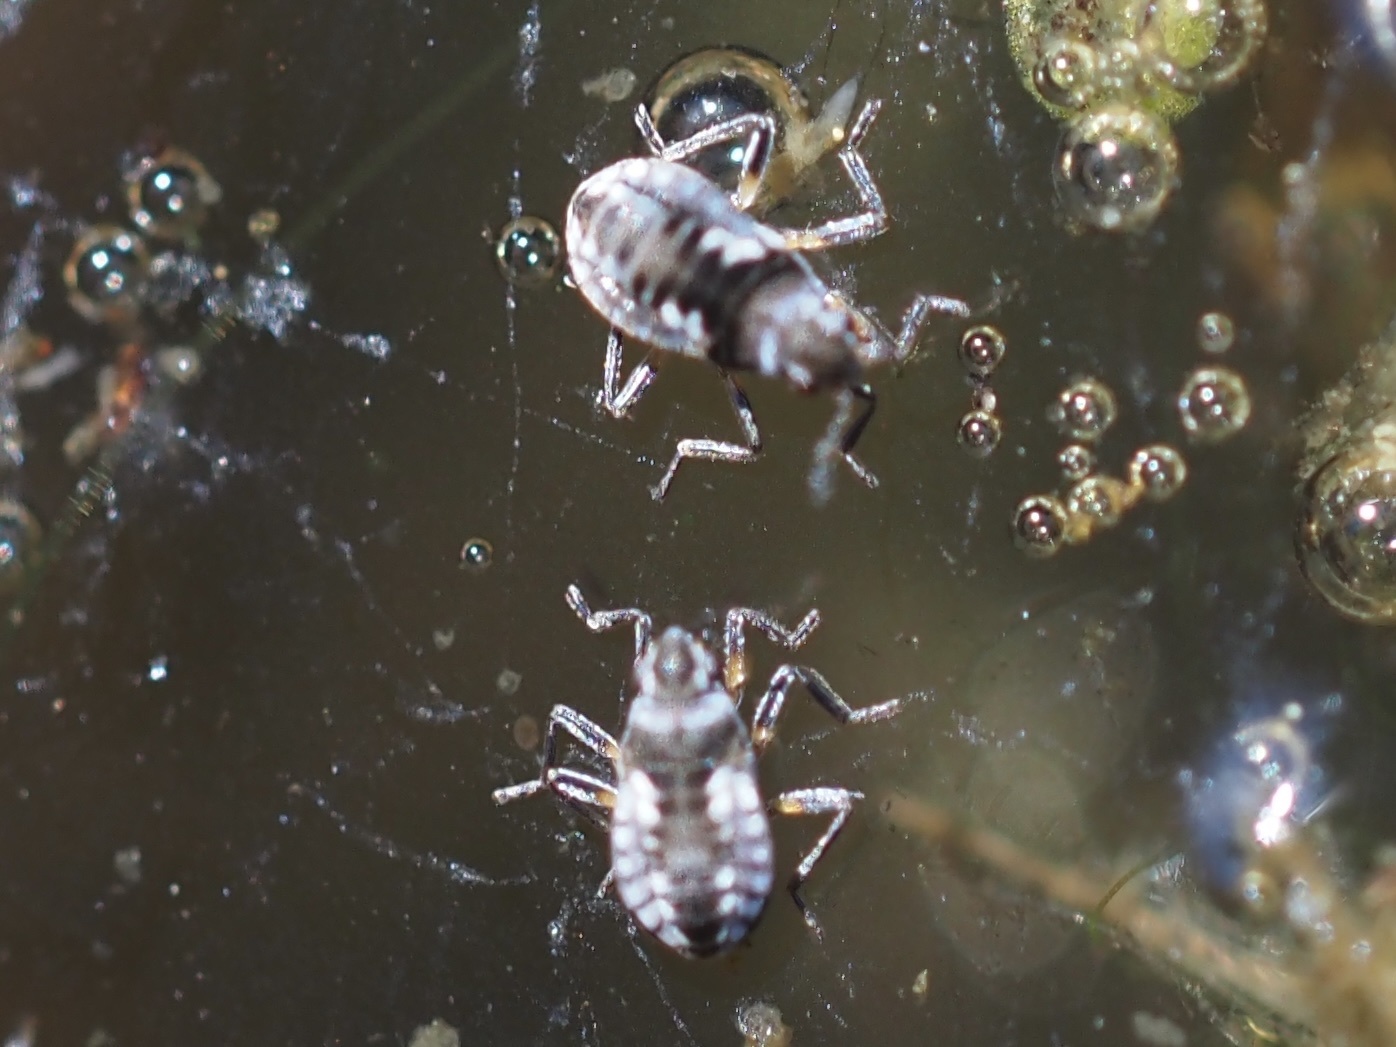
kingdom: Animalia
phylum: Arthropoda
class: Insecta
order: Hemiptera
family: Veliidae
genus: Microvelia
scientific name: Microvelia buenoi
